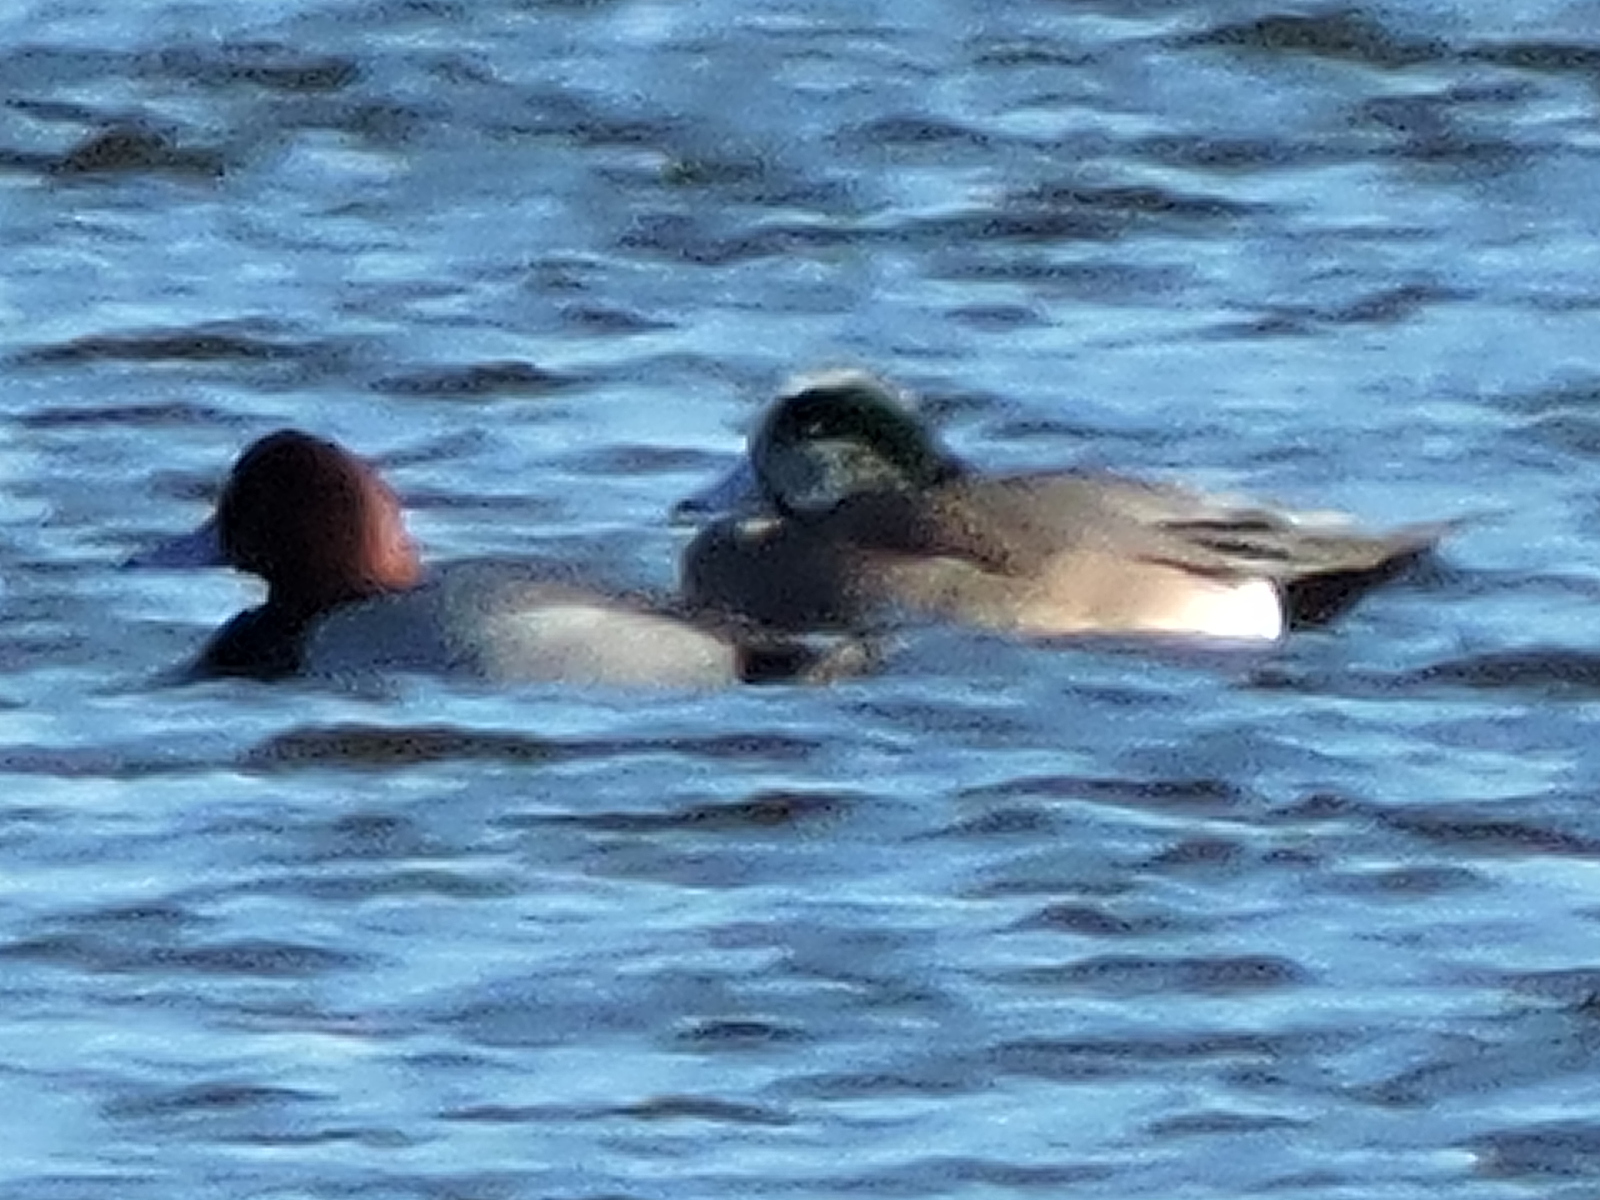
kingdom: Animalia
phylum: Chordata
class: Aves
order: Anseriformes
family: Anatidae
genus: Mareca
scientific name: Mareca americana
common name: American wigeon
